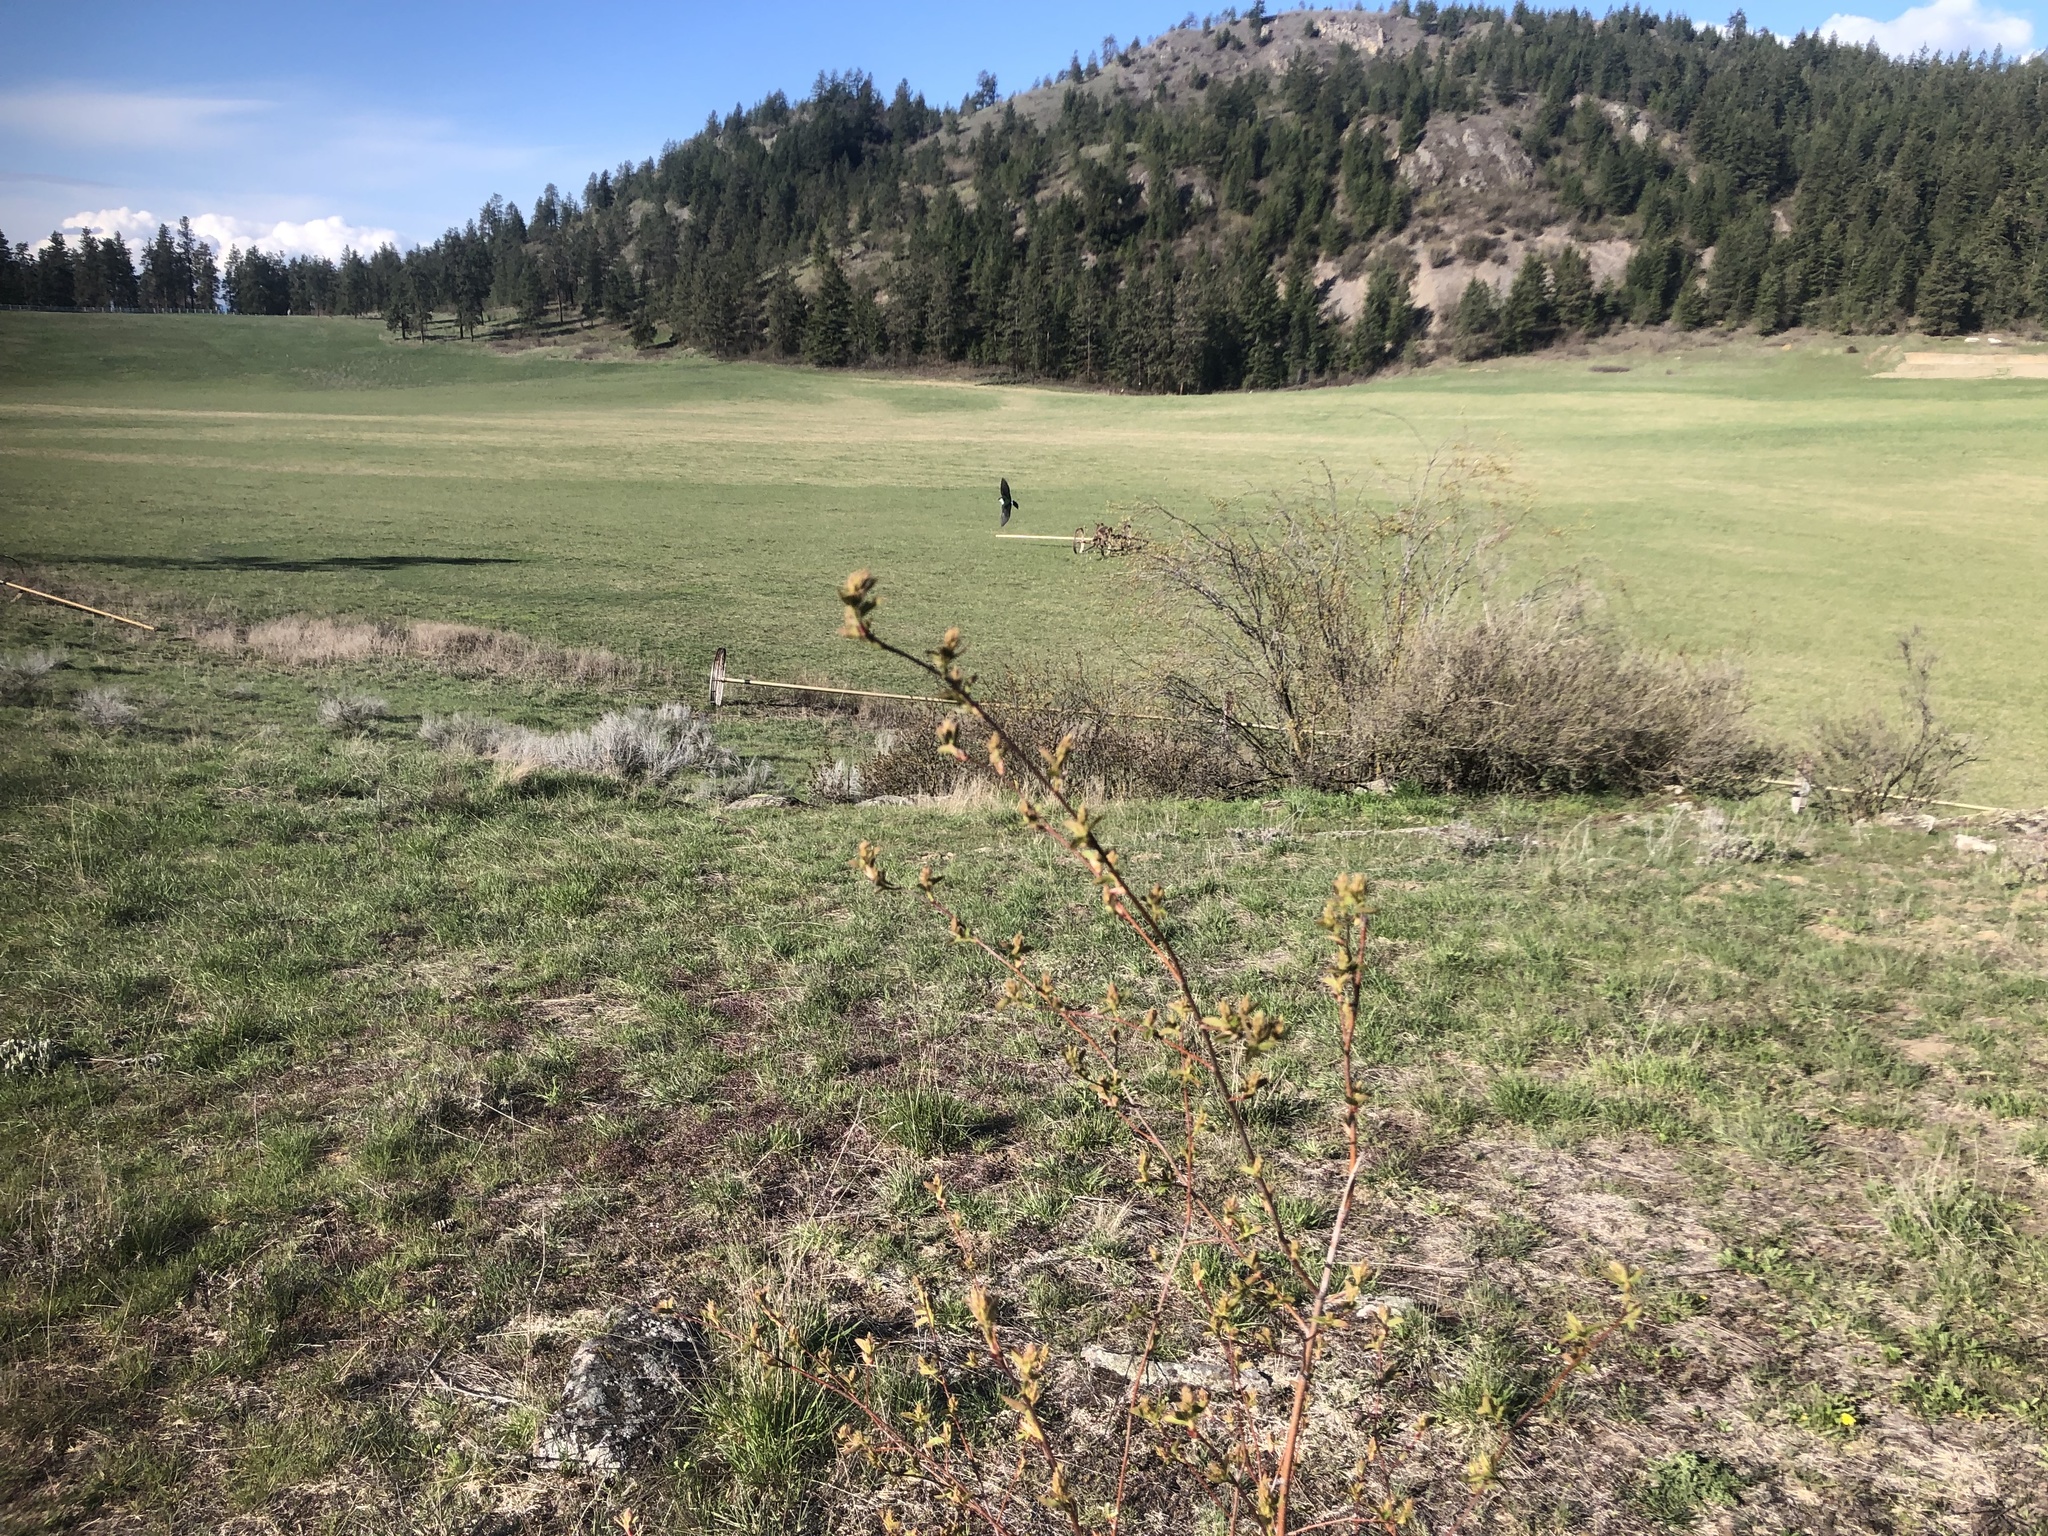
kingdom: Animalia
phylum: Chordata
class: Aves
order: Passeriformes
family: Hirundinidae
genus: Tachycineta
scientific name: Tachycineta thalassina
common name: Violet-green swallow
